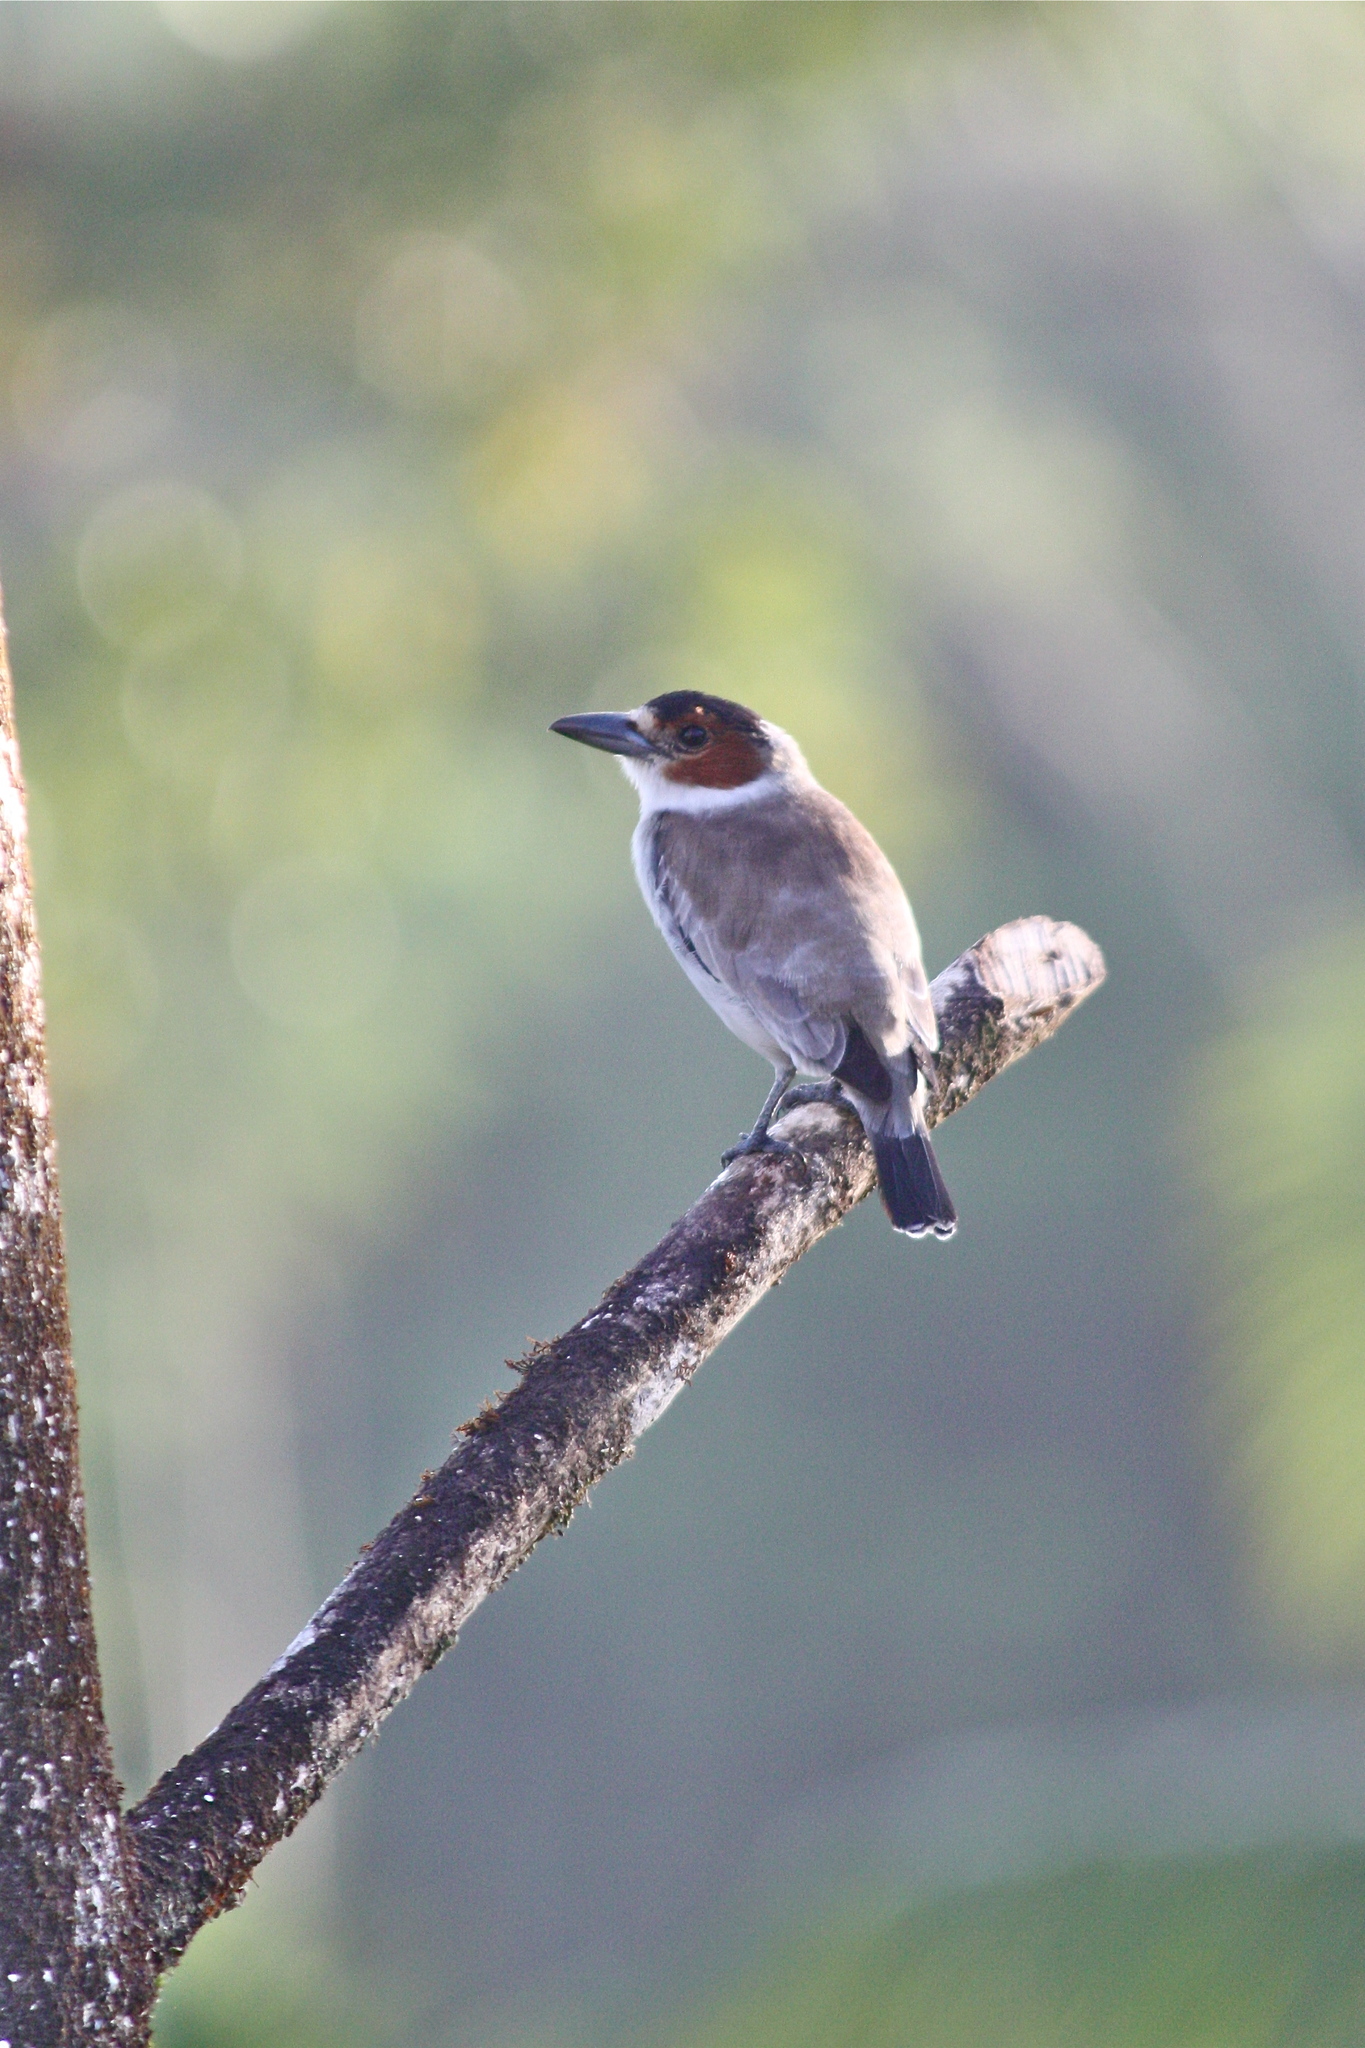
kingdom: Animalia
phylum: Chordata
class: Aves
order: Passeriformes
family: Cotingidae
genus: Tityra
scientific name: Tityra inquisitor
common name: Black-crowned tityra
